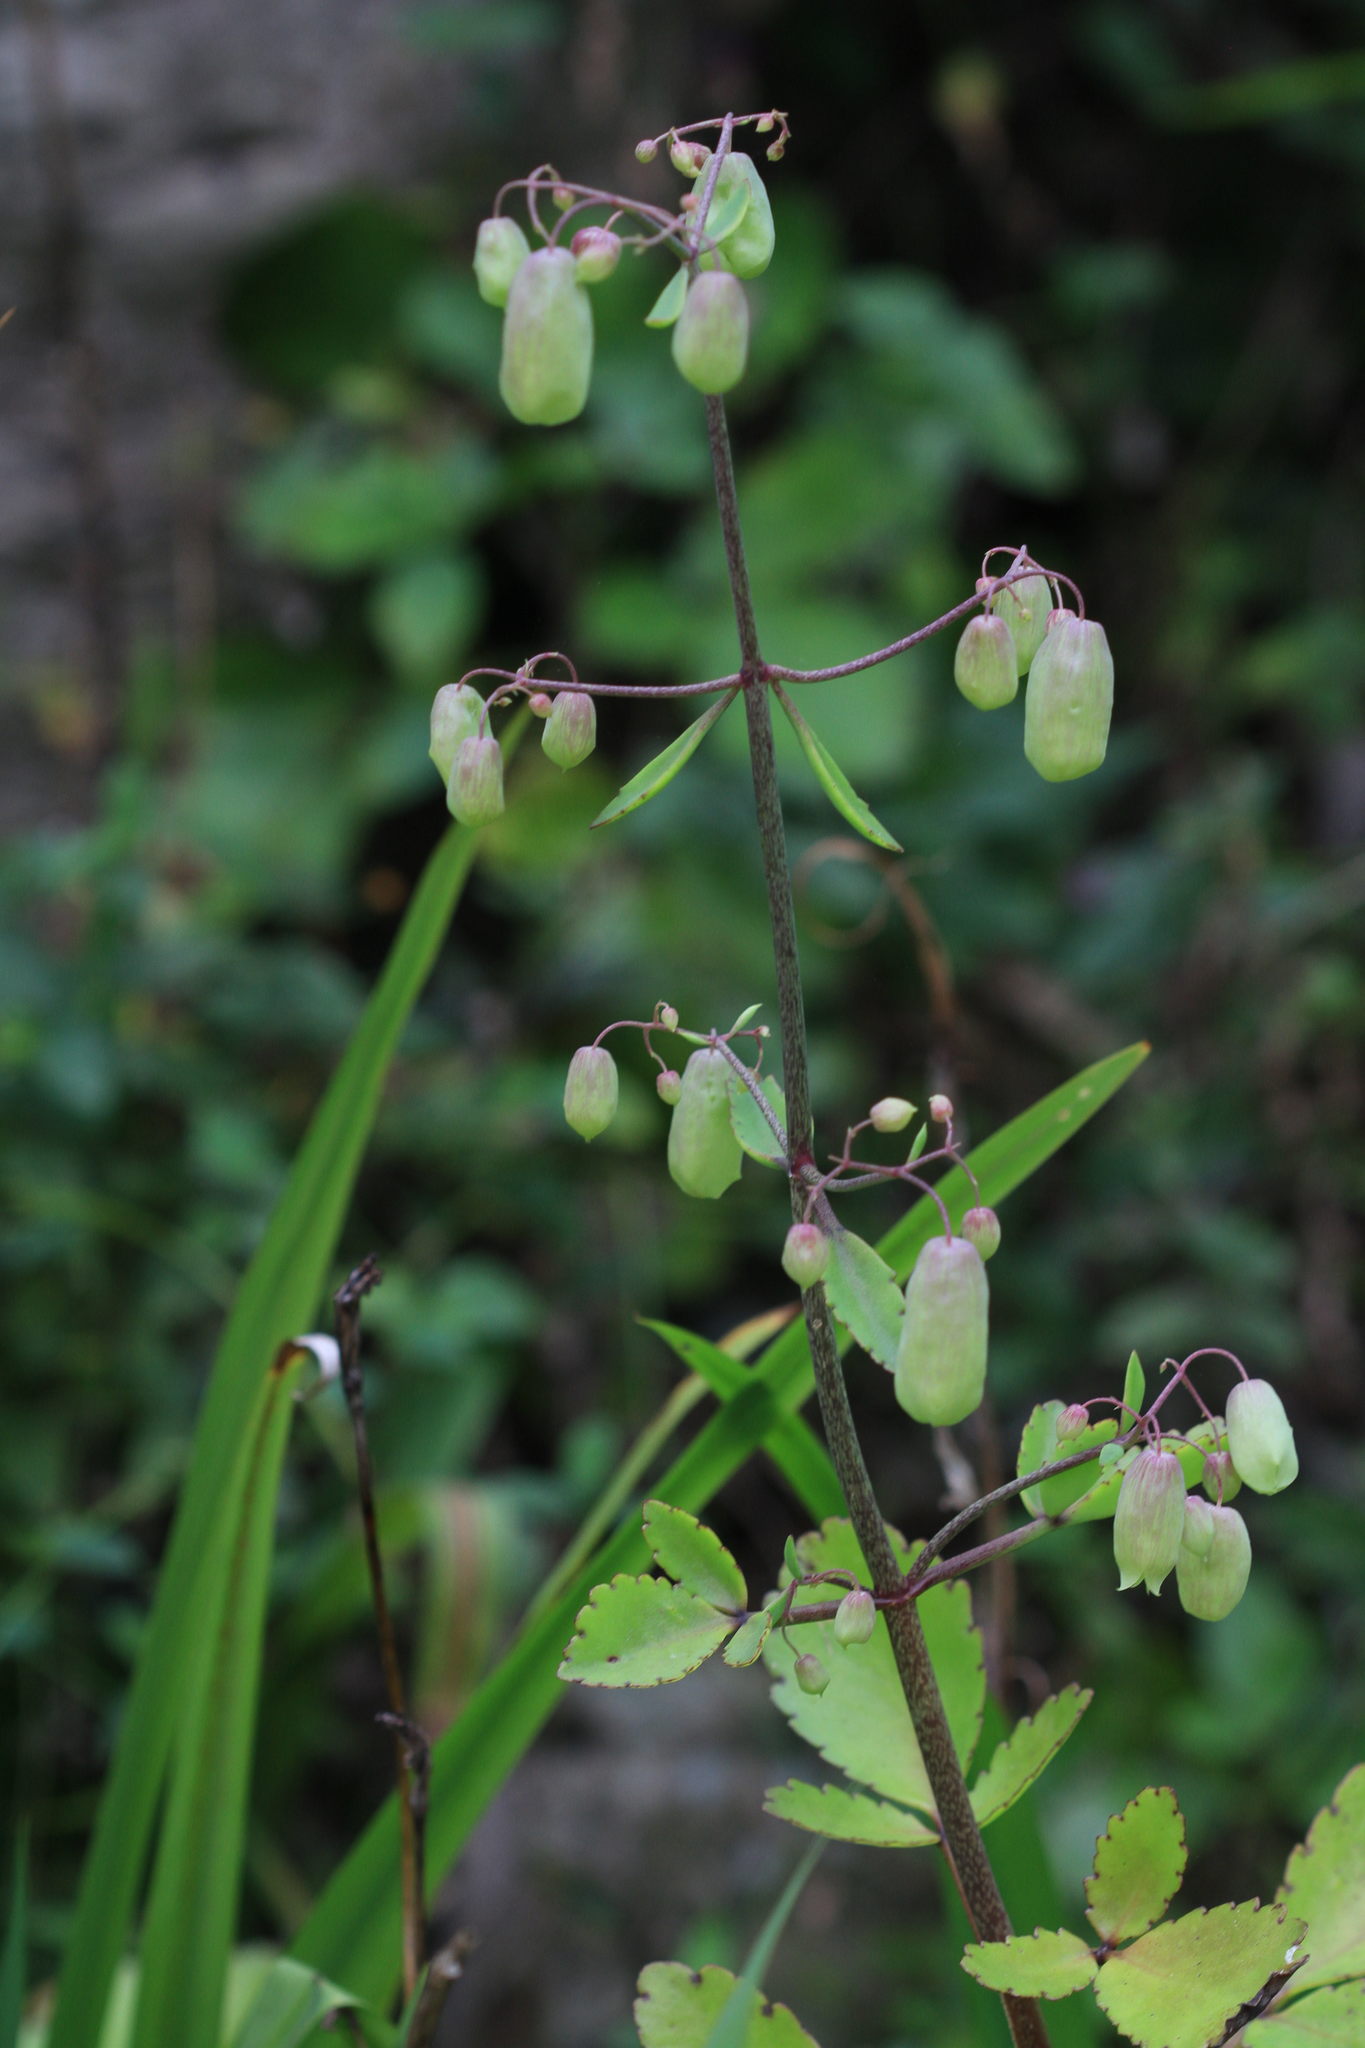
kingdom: Plantae
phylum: Tracheophyta
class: Magnoliopsida
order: Saxifragales
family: Crassulaceae
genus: Kalanchoe
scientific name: Kalanchoe pinnata
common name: Cathedral bells
